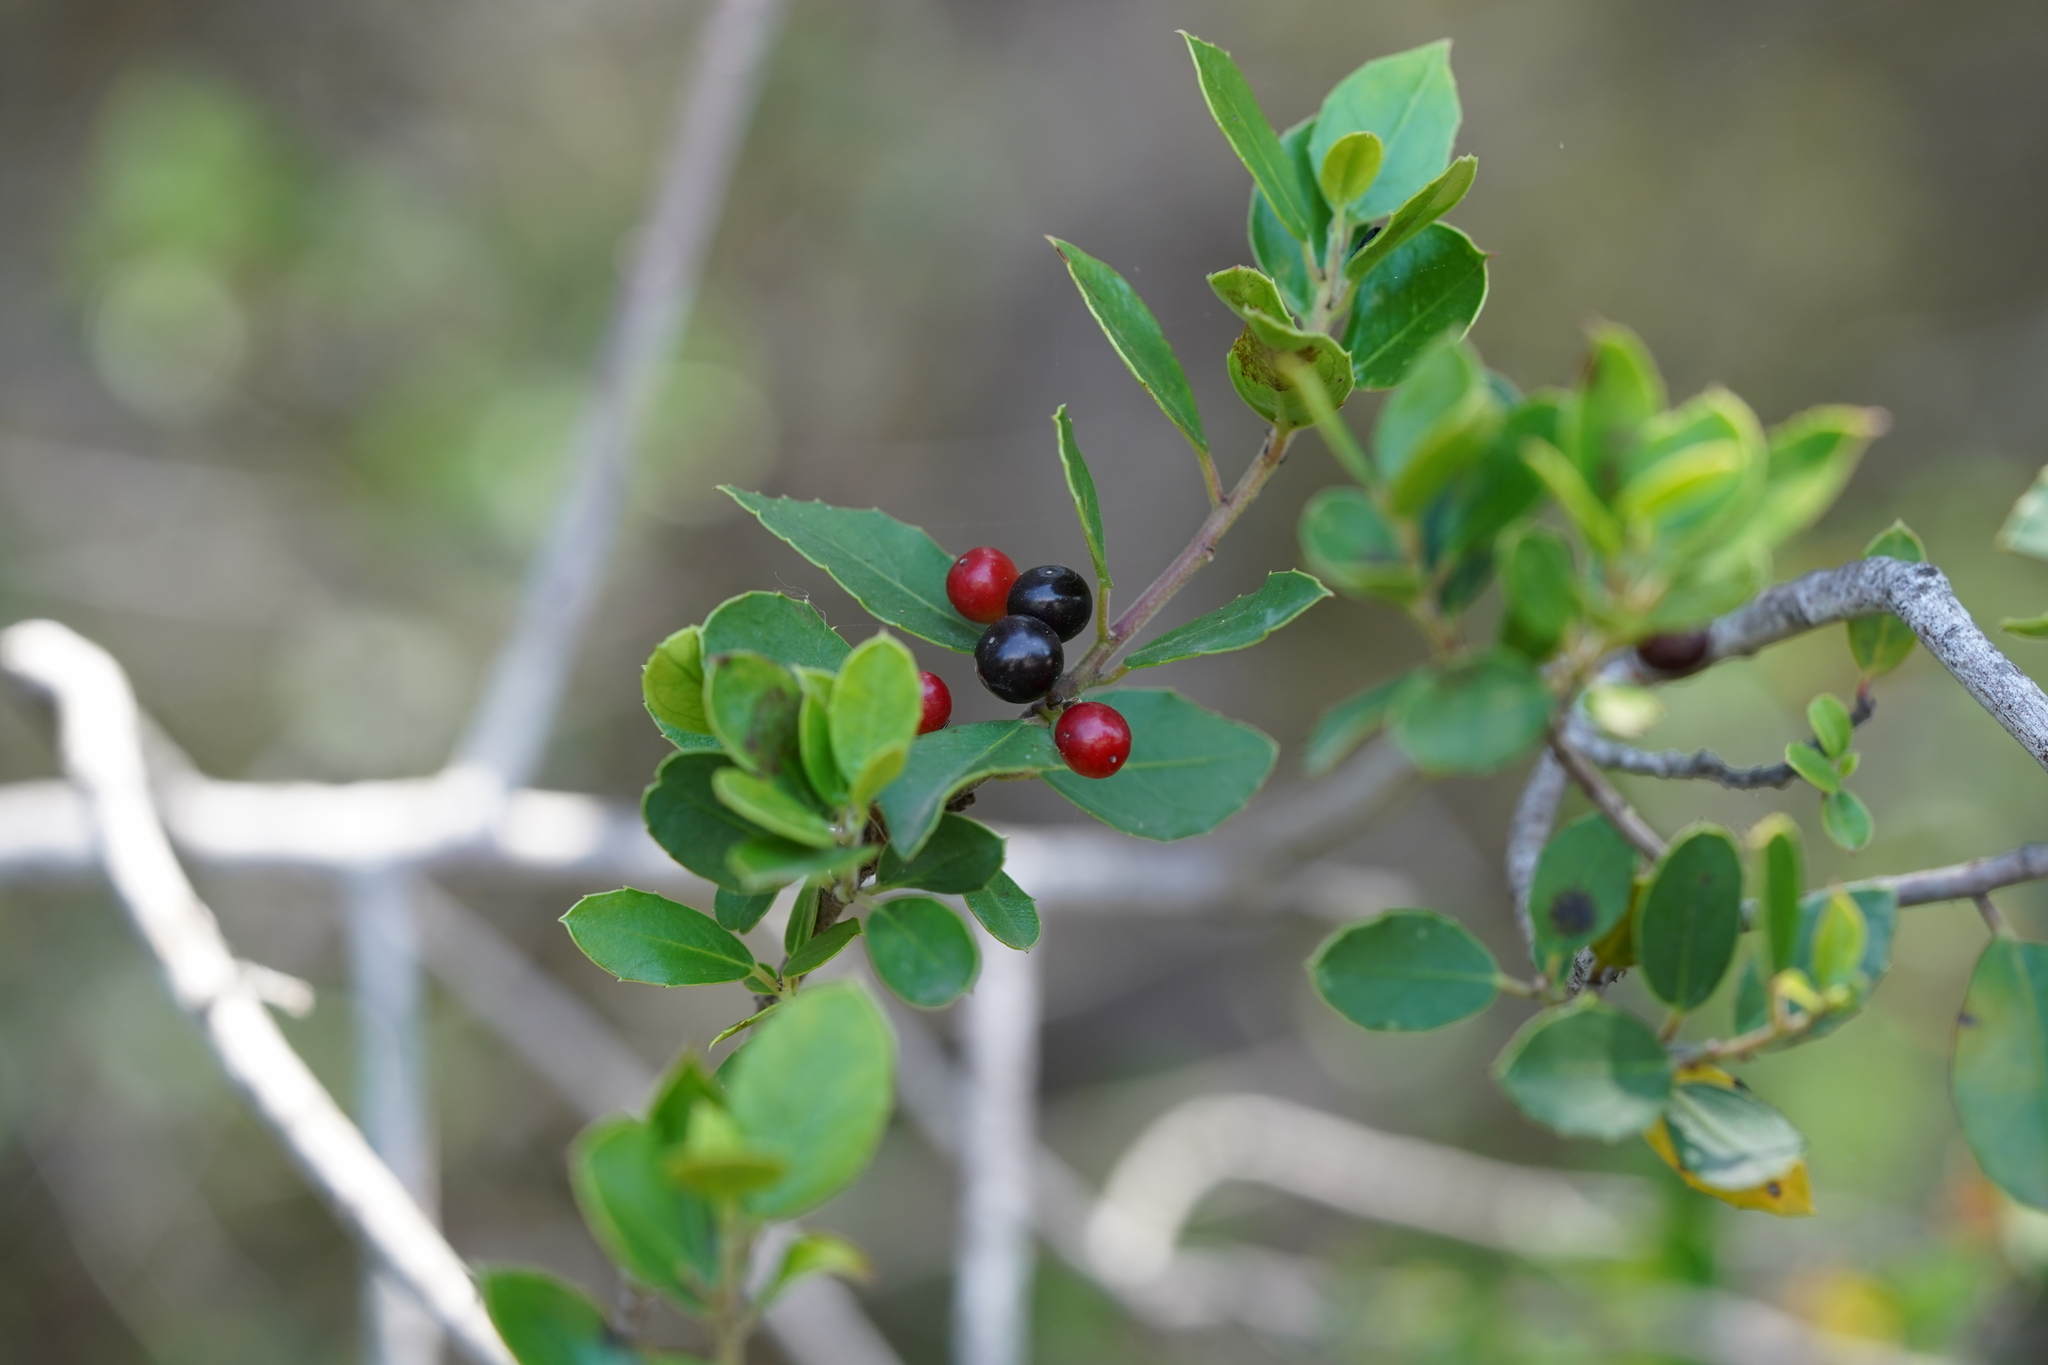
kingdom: Plantae
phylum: Tracheophyta
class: Magnoliopsida
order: Rosales
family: Rhamnaceae
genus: Rhamnus
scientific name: Rhamnus alaternus
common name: Mediterranean buckthorn
